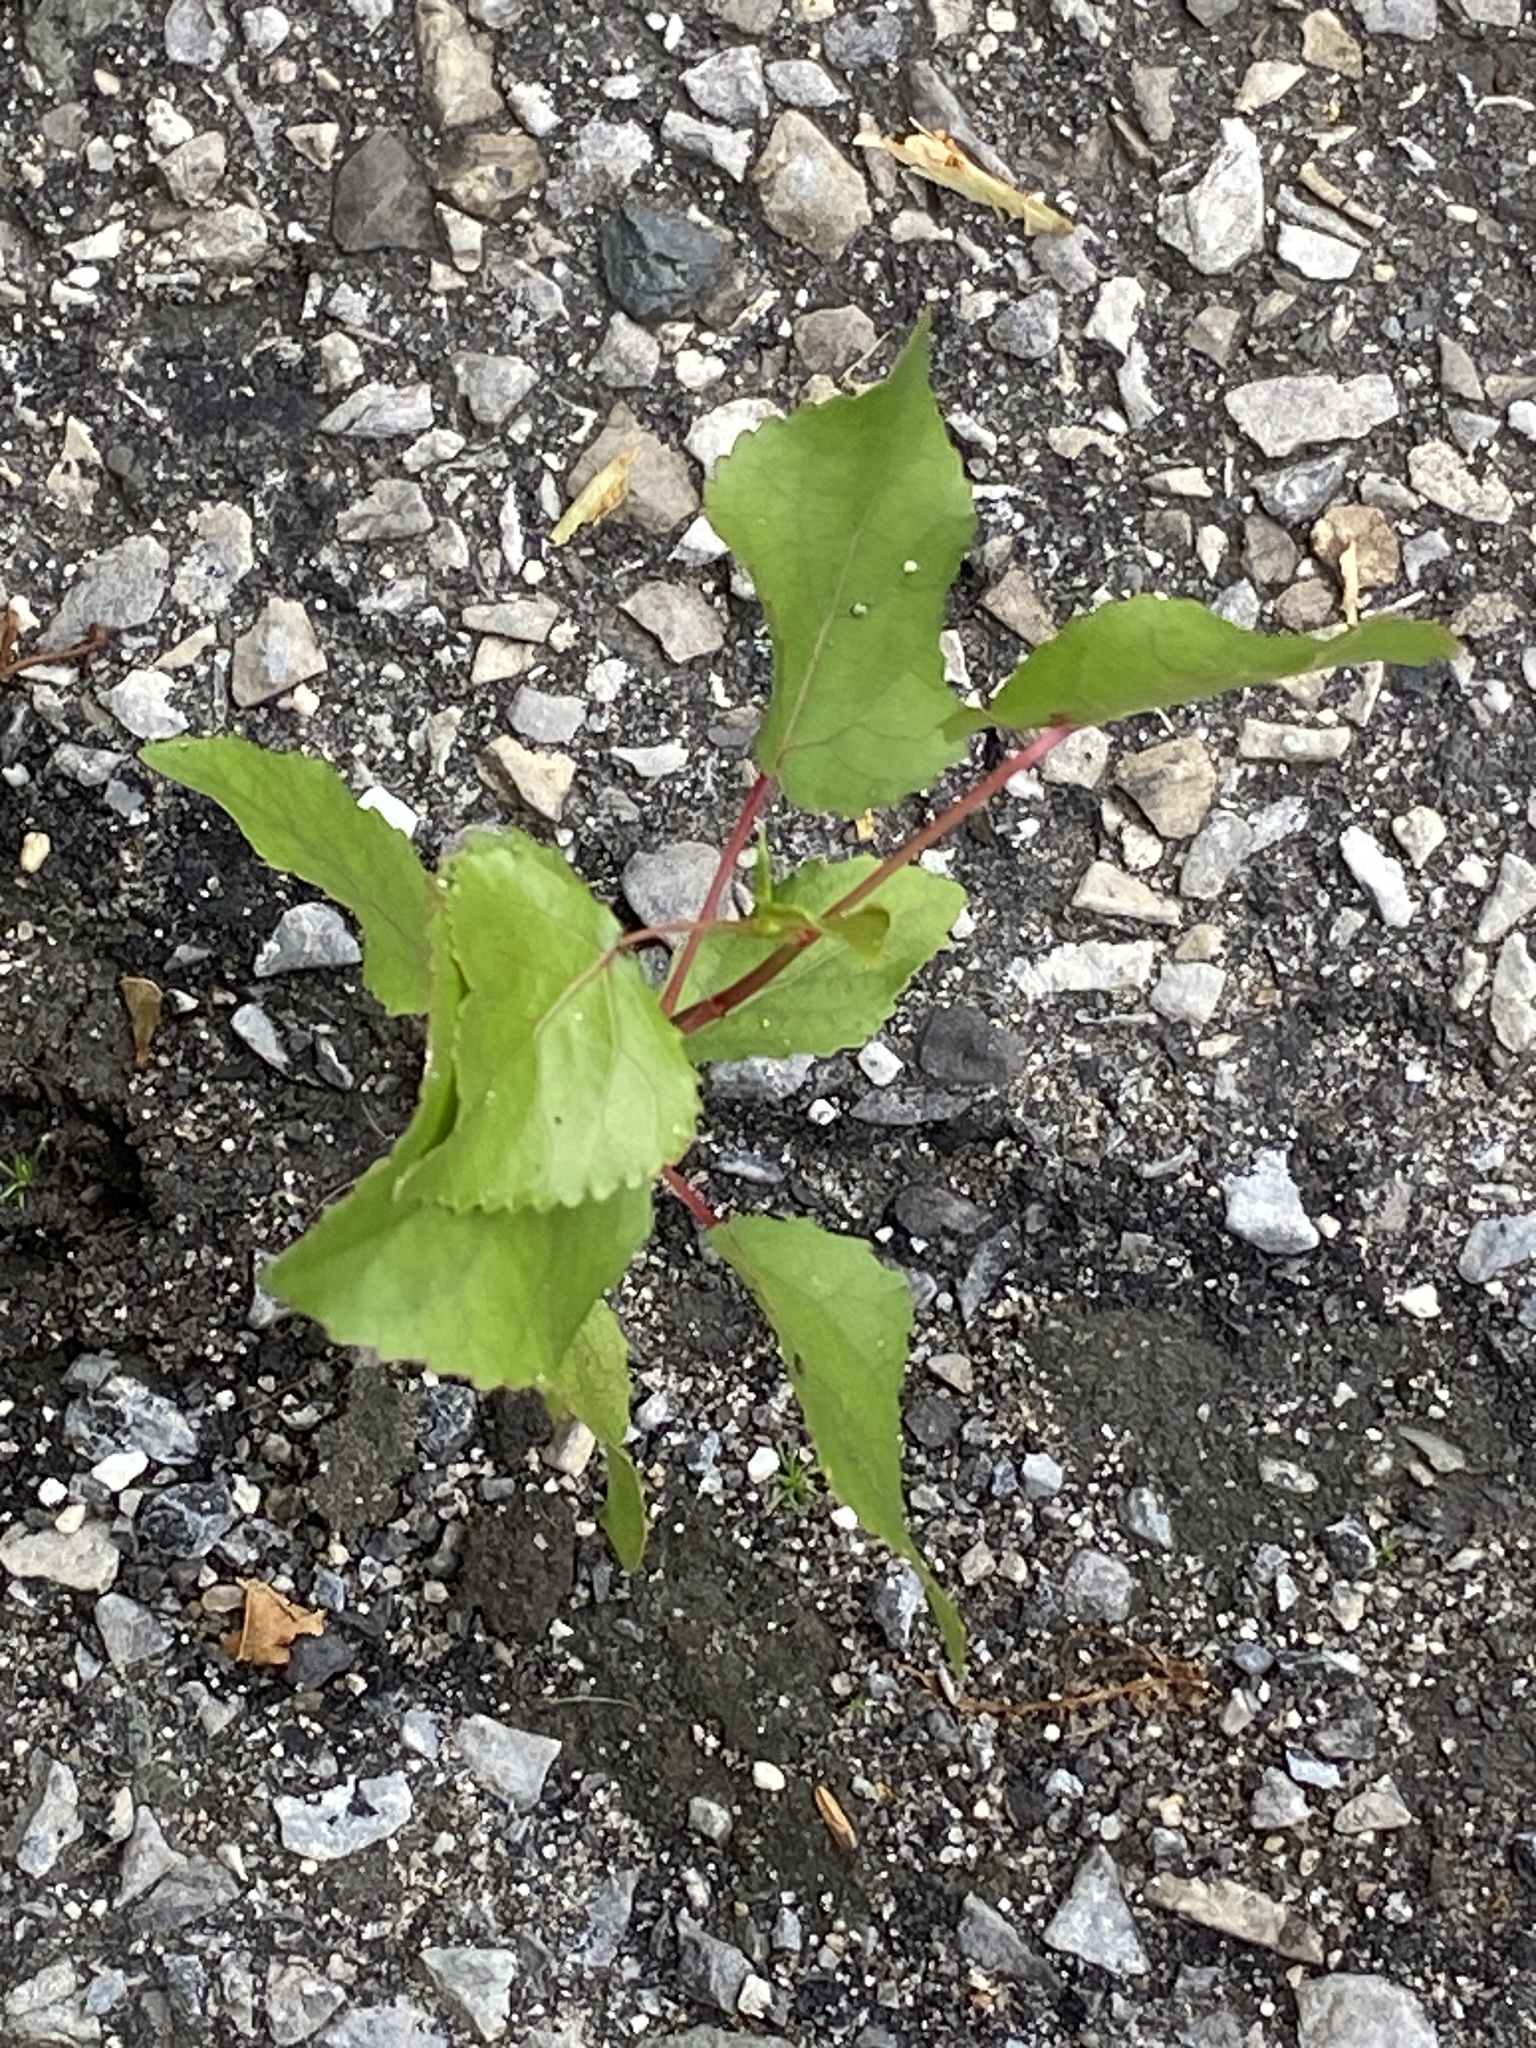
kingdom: Plantae
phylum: Tracheophyta
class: Magnoliopsida
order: Malpighiales
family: Salicaceae
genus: Populus
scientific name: Populus deltoides
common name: Eastern cottonwood
